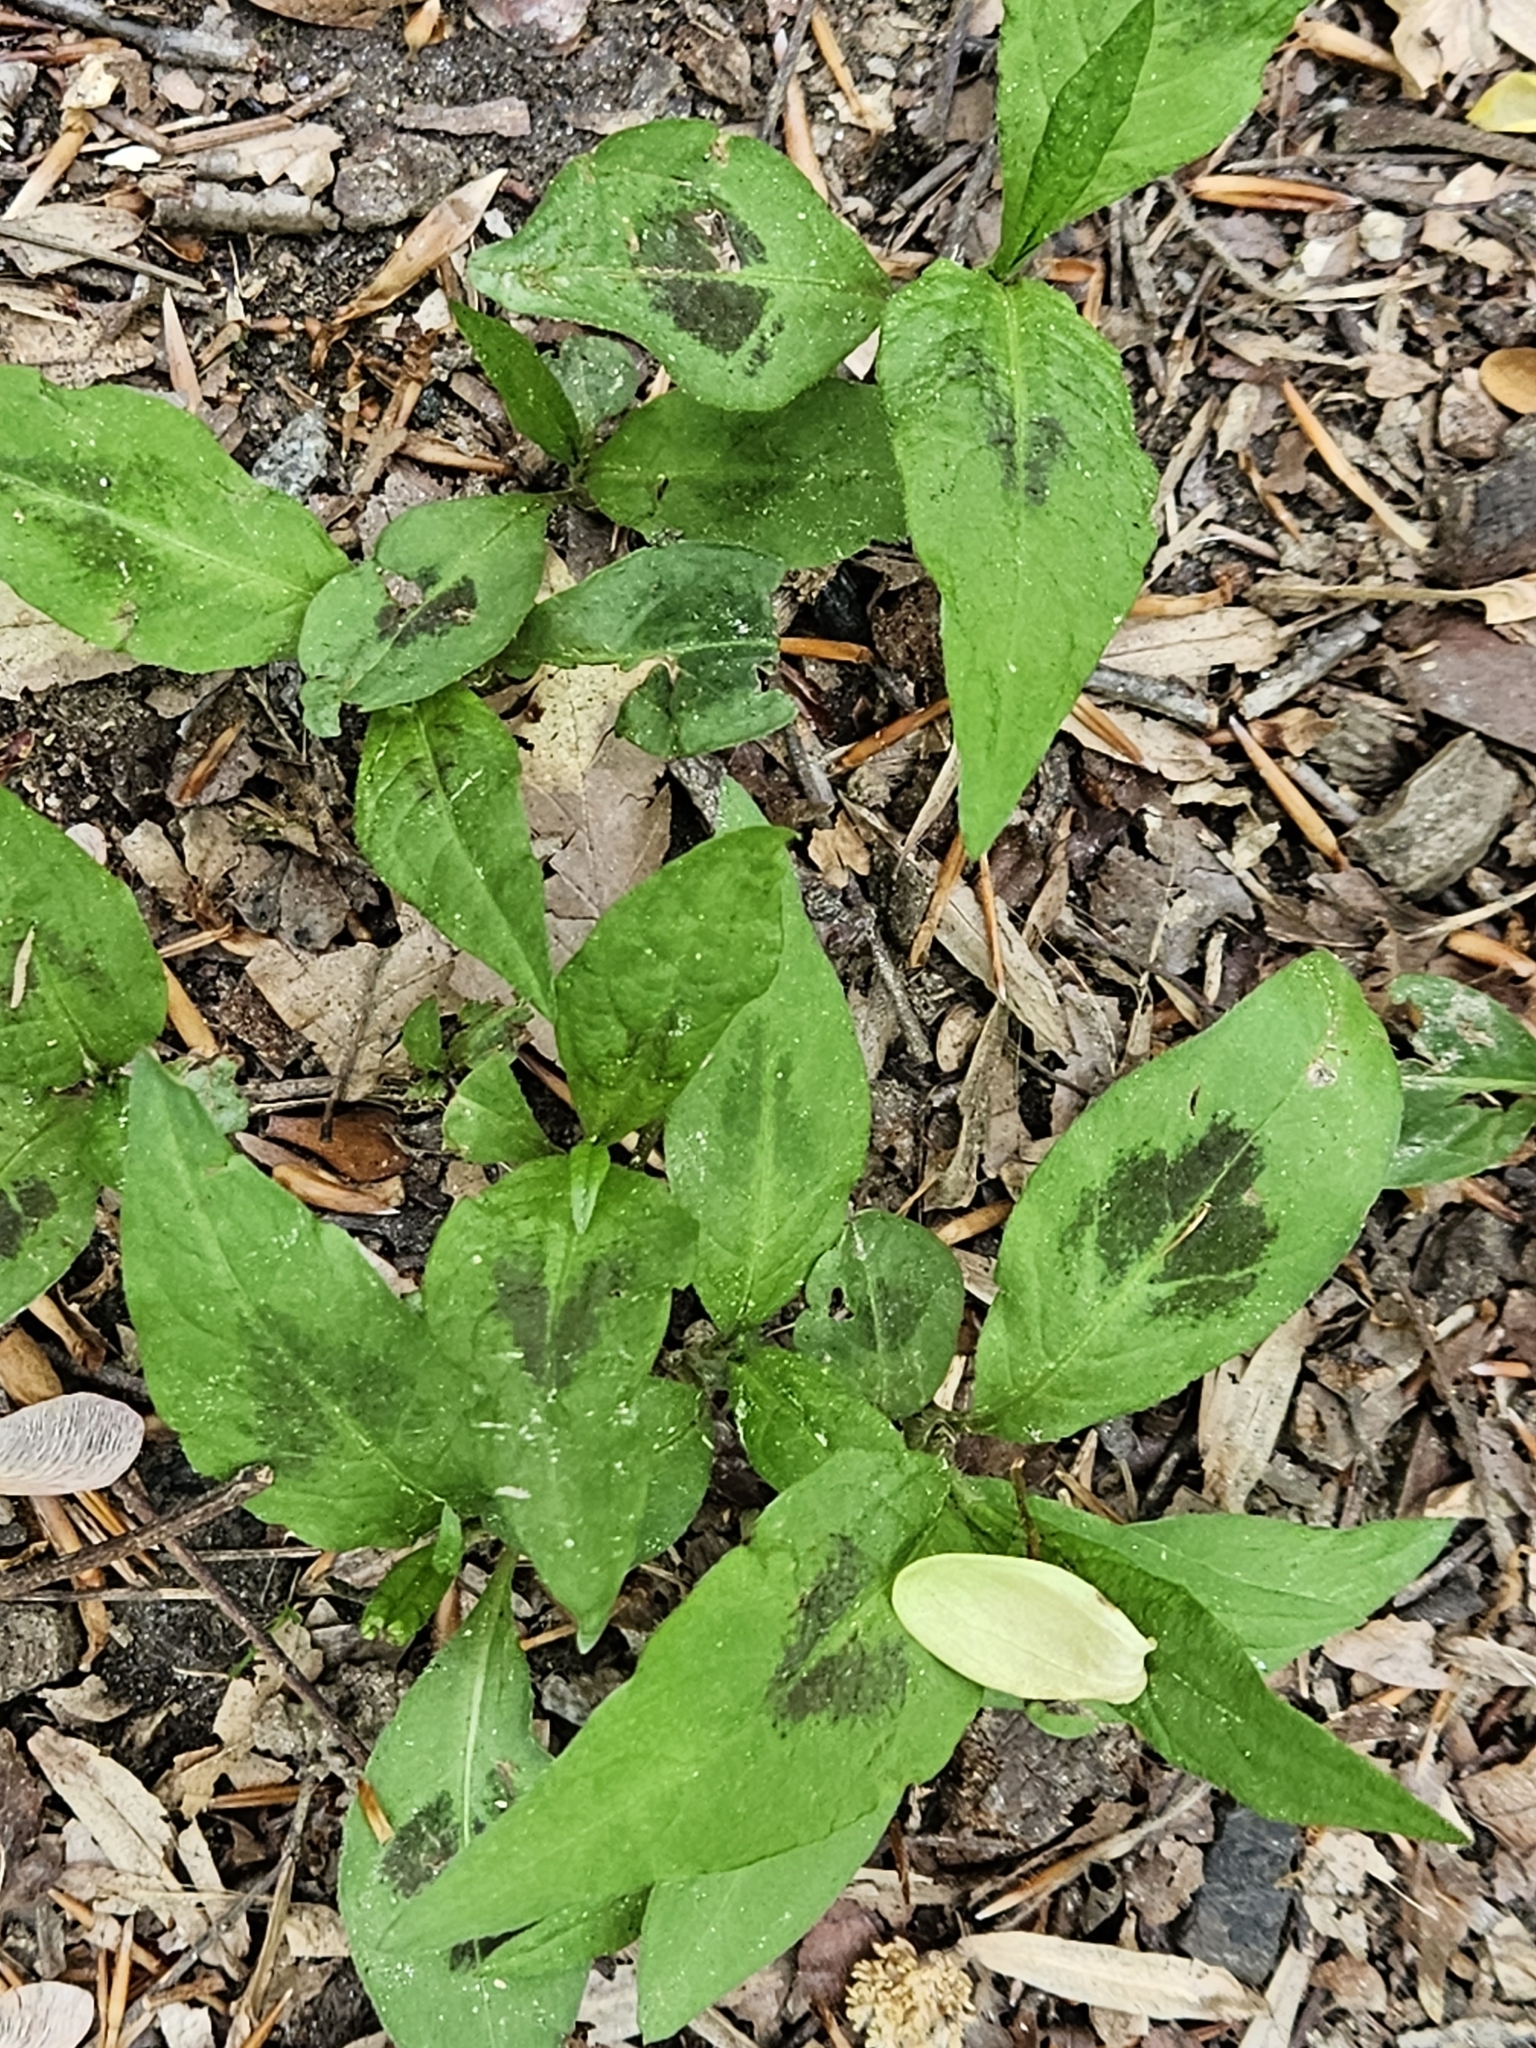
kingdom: Plantae
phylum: Tracheophyta
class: Magnoliopsida
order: Caryophyllales
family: Polygonaceae
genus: Persicaria
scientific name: Persicaria virginiana
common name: Jumpseed
